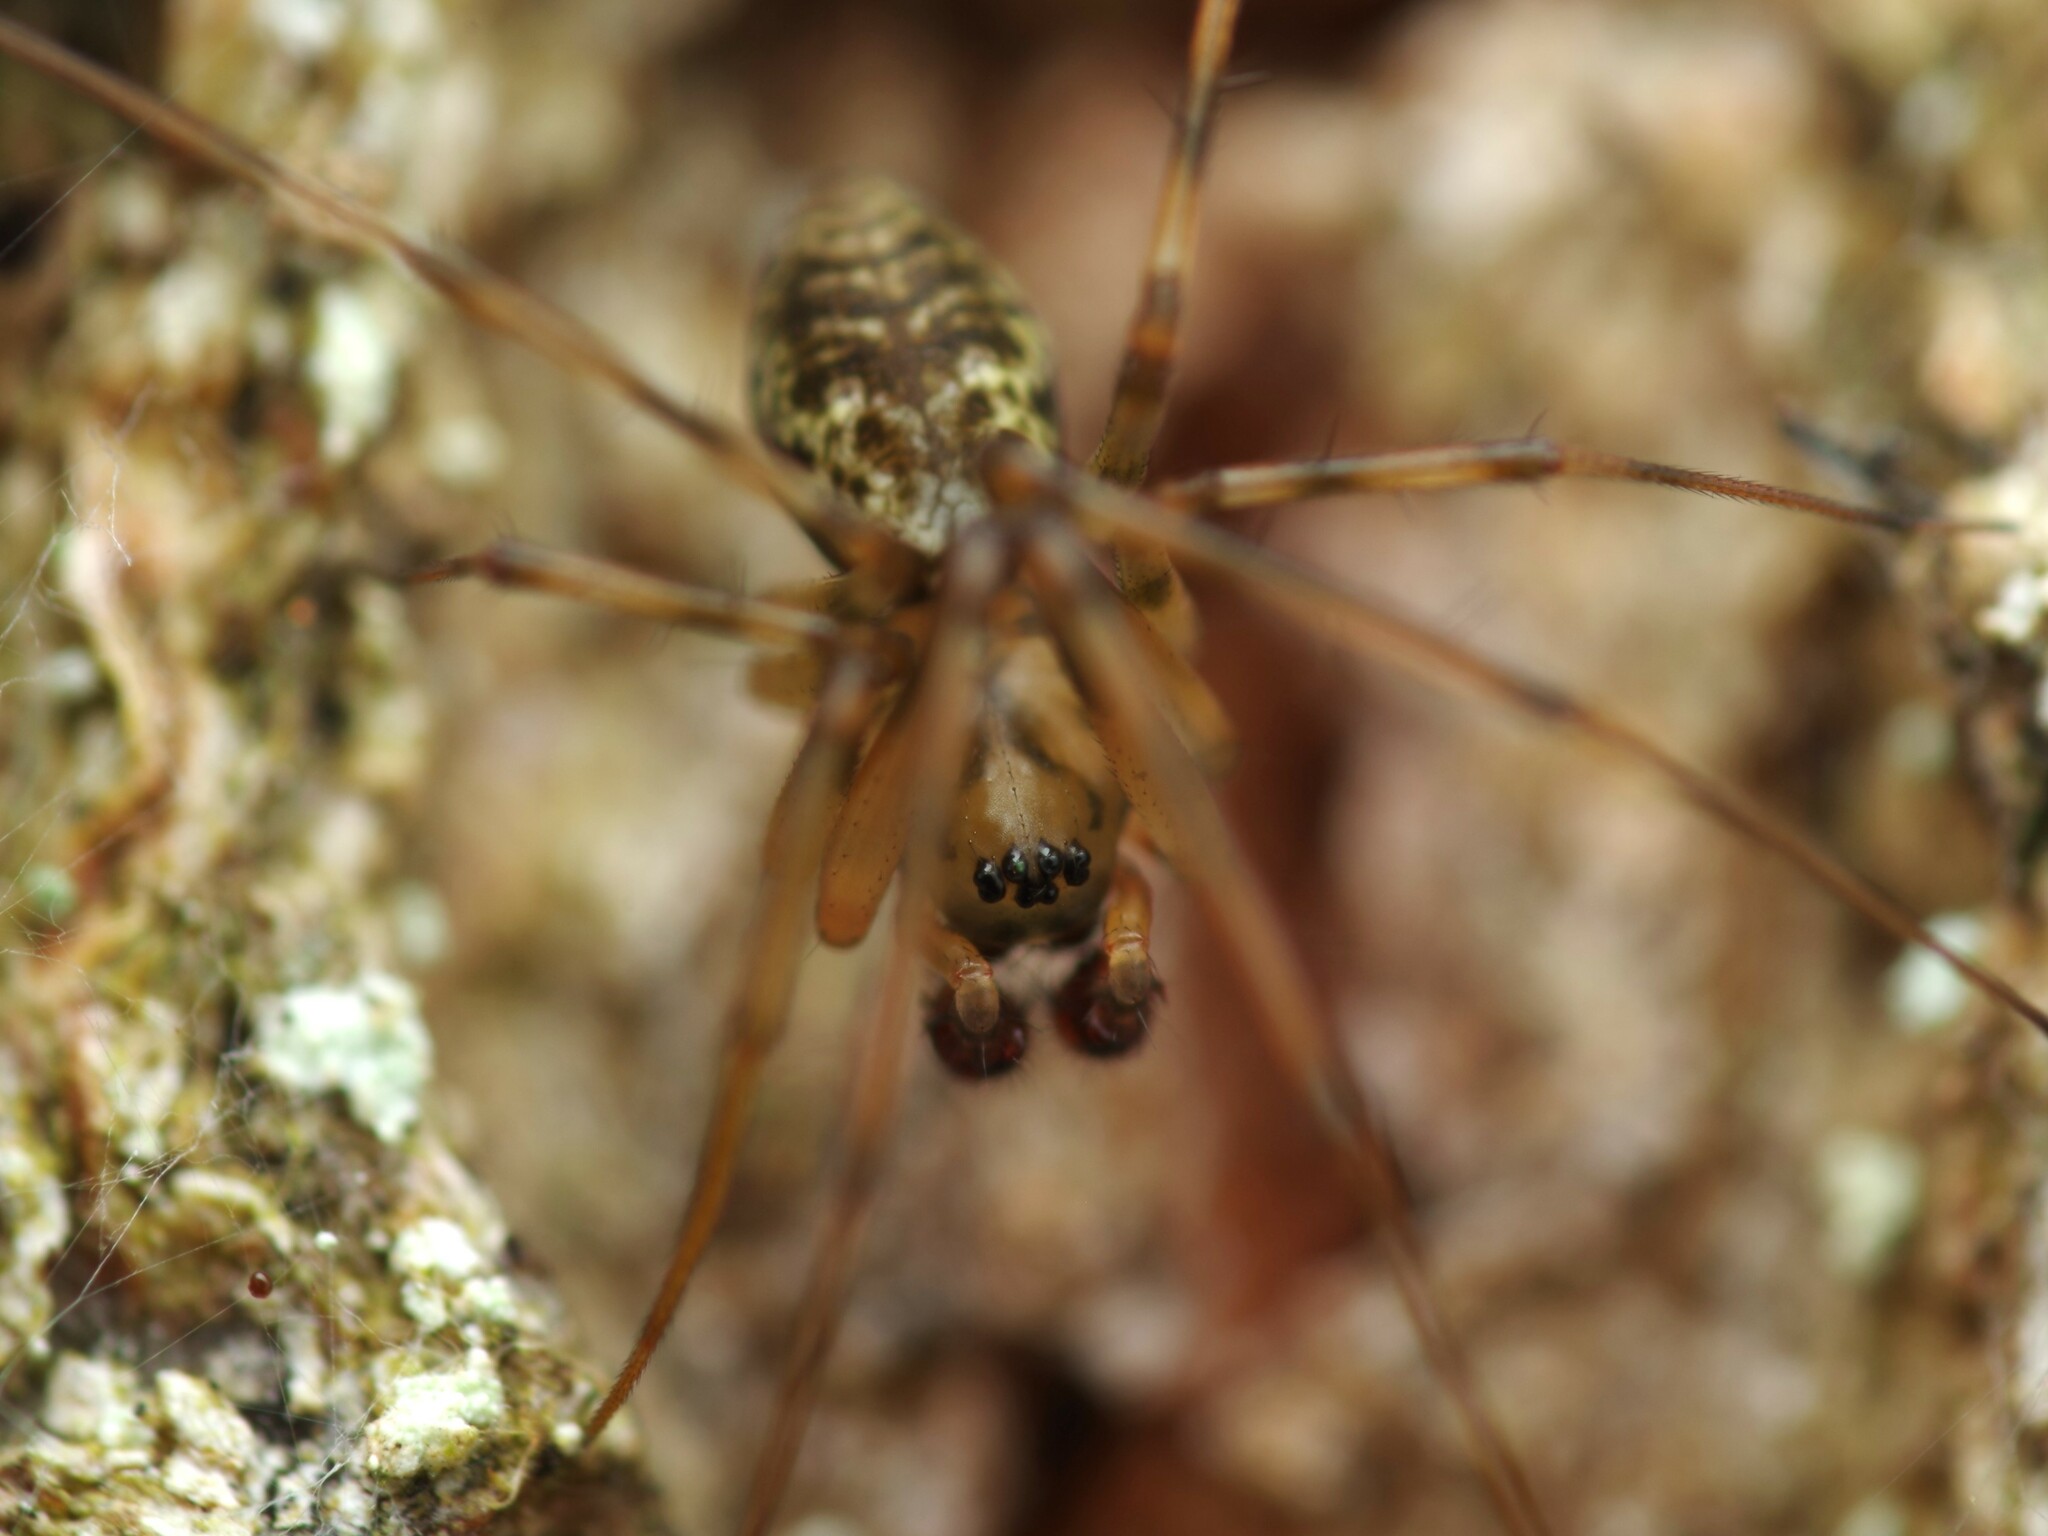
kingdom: Animalia
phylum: Arthropoda
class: Arachnida
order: Araneae
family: Linyphiidae
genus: Drapetisca
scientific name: Drapetisca socialis
